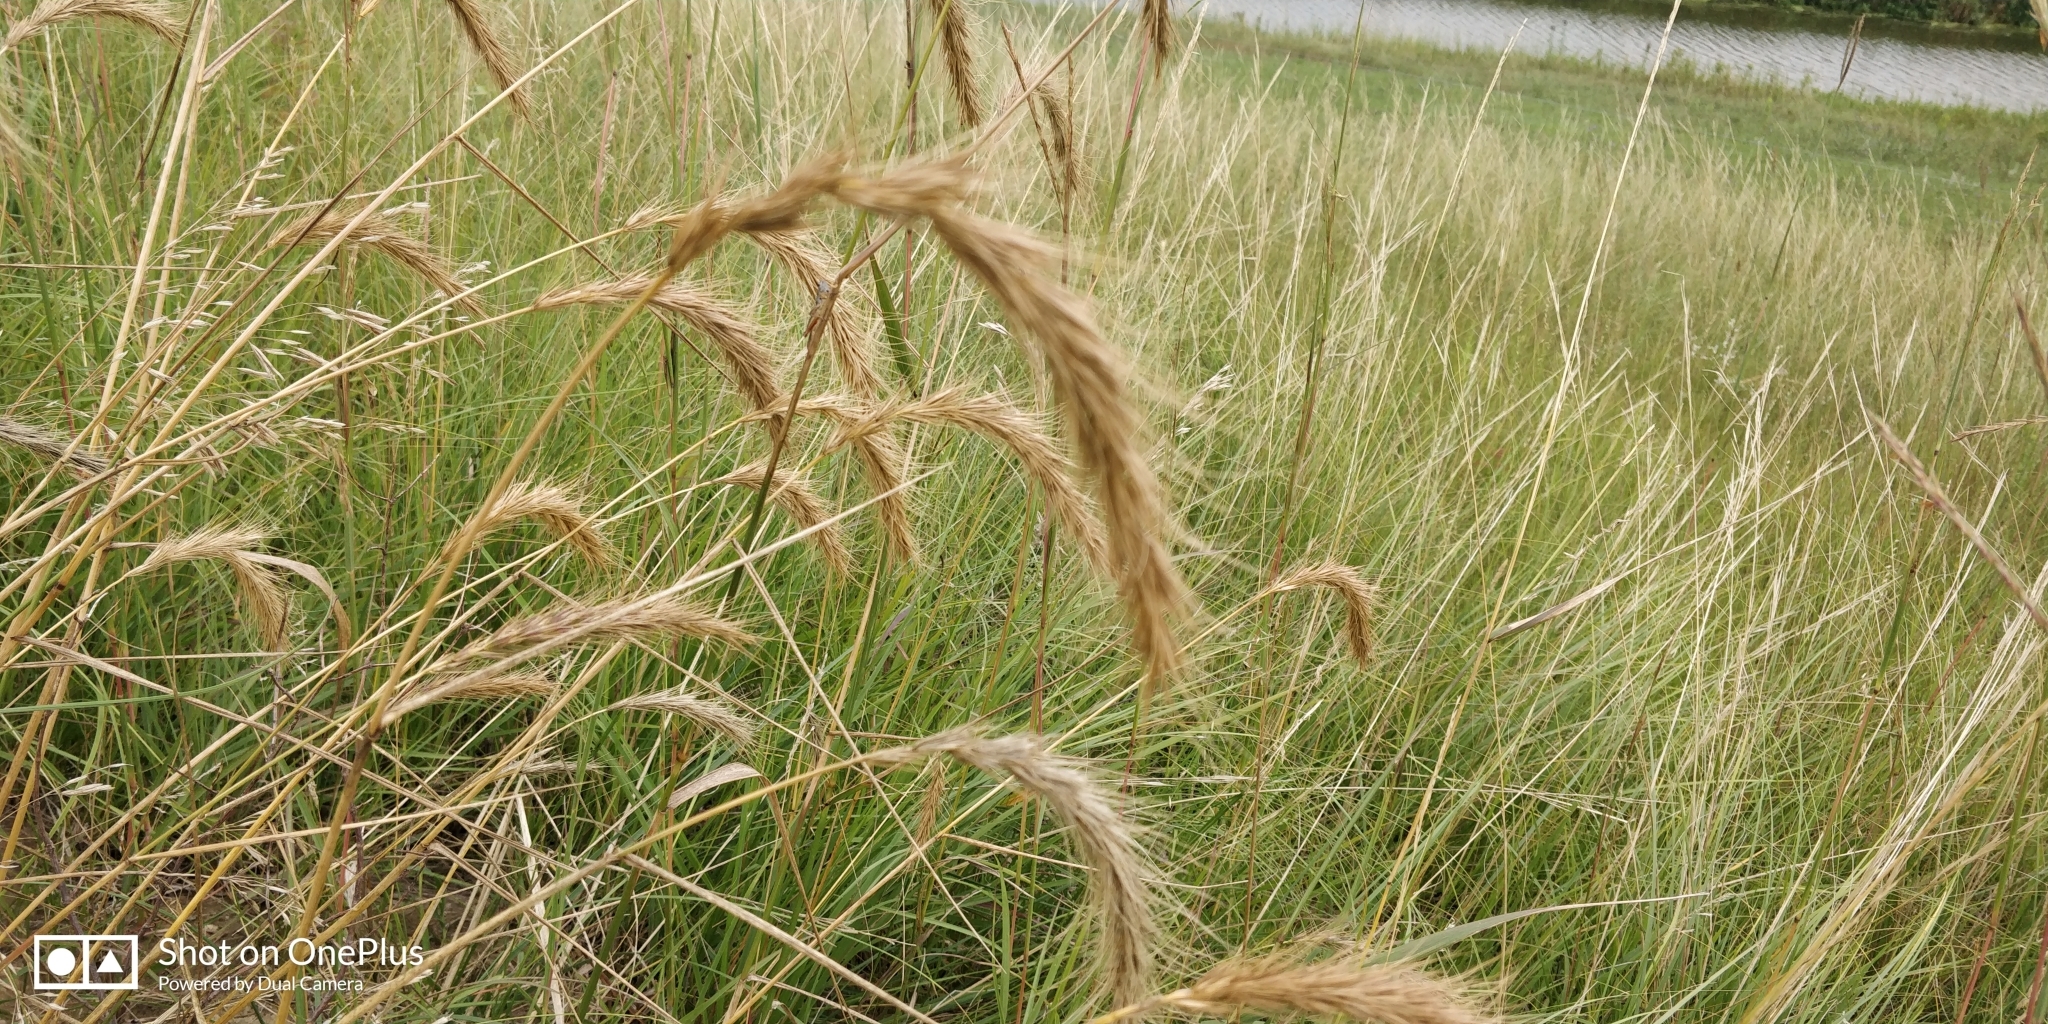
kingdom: Plantae
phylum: Tracheophyta
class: Liliopsida
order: Poales
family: Poaceae
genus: Elymus
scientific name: Elymus canadensis
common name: Canada wild rye
